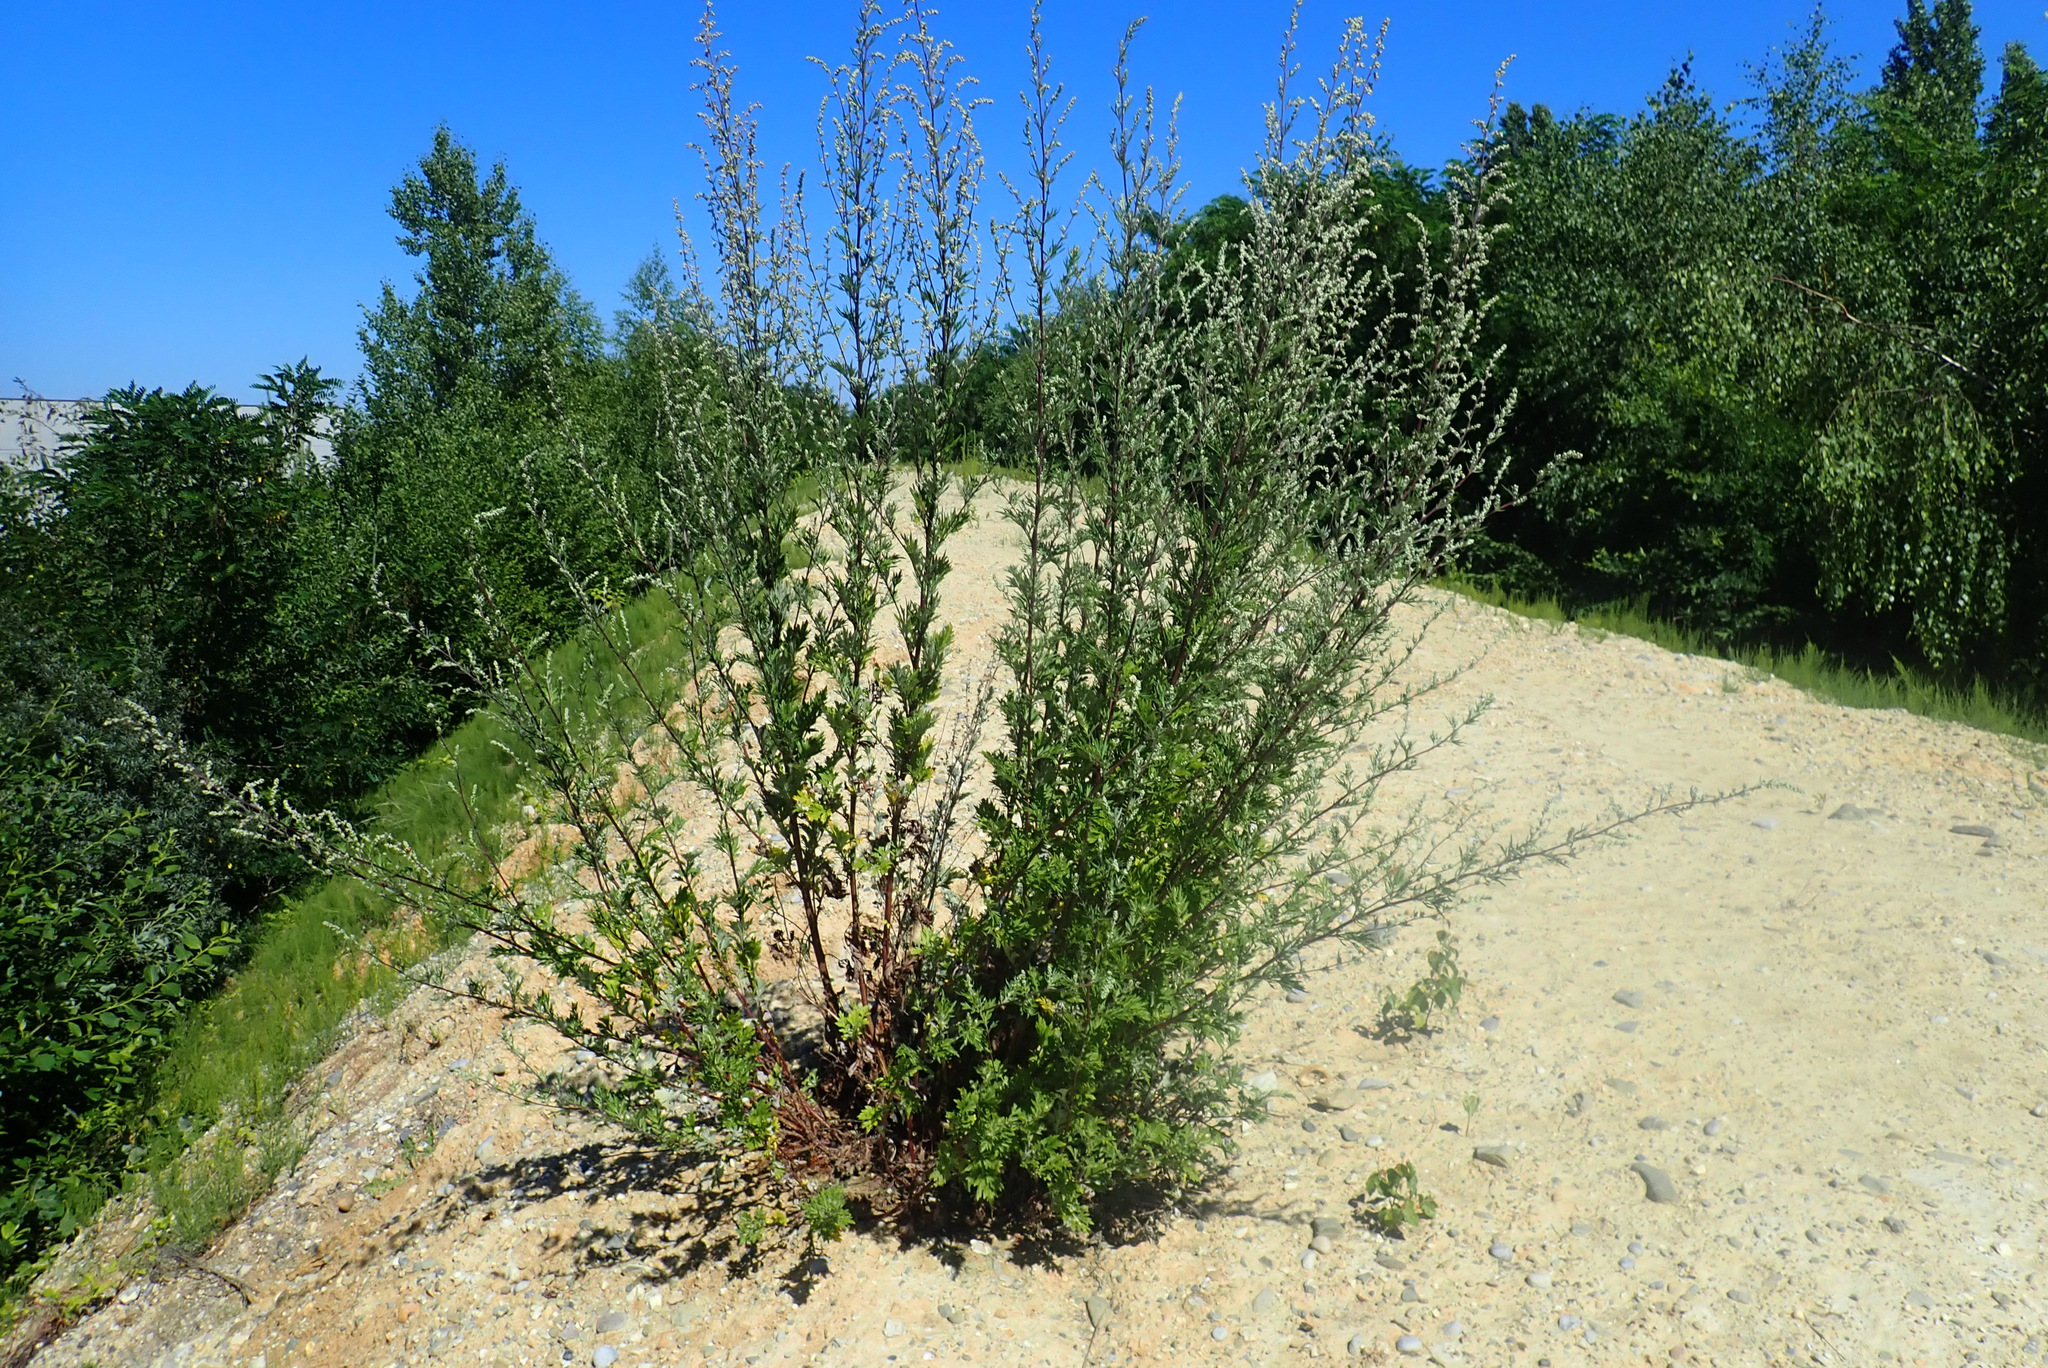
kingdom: Plantae
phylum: Tracheophyta
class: Magnoliopsida
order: Asterales
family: Asteraceae
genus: Artemisia
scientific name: Artemisia vulgaris
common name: Mugwort
